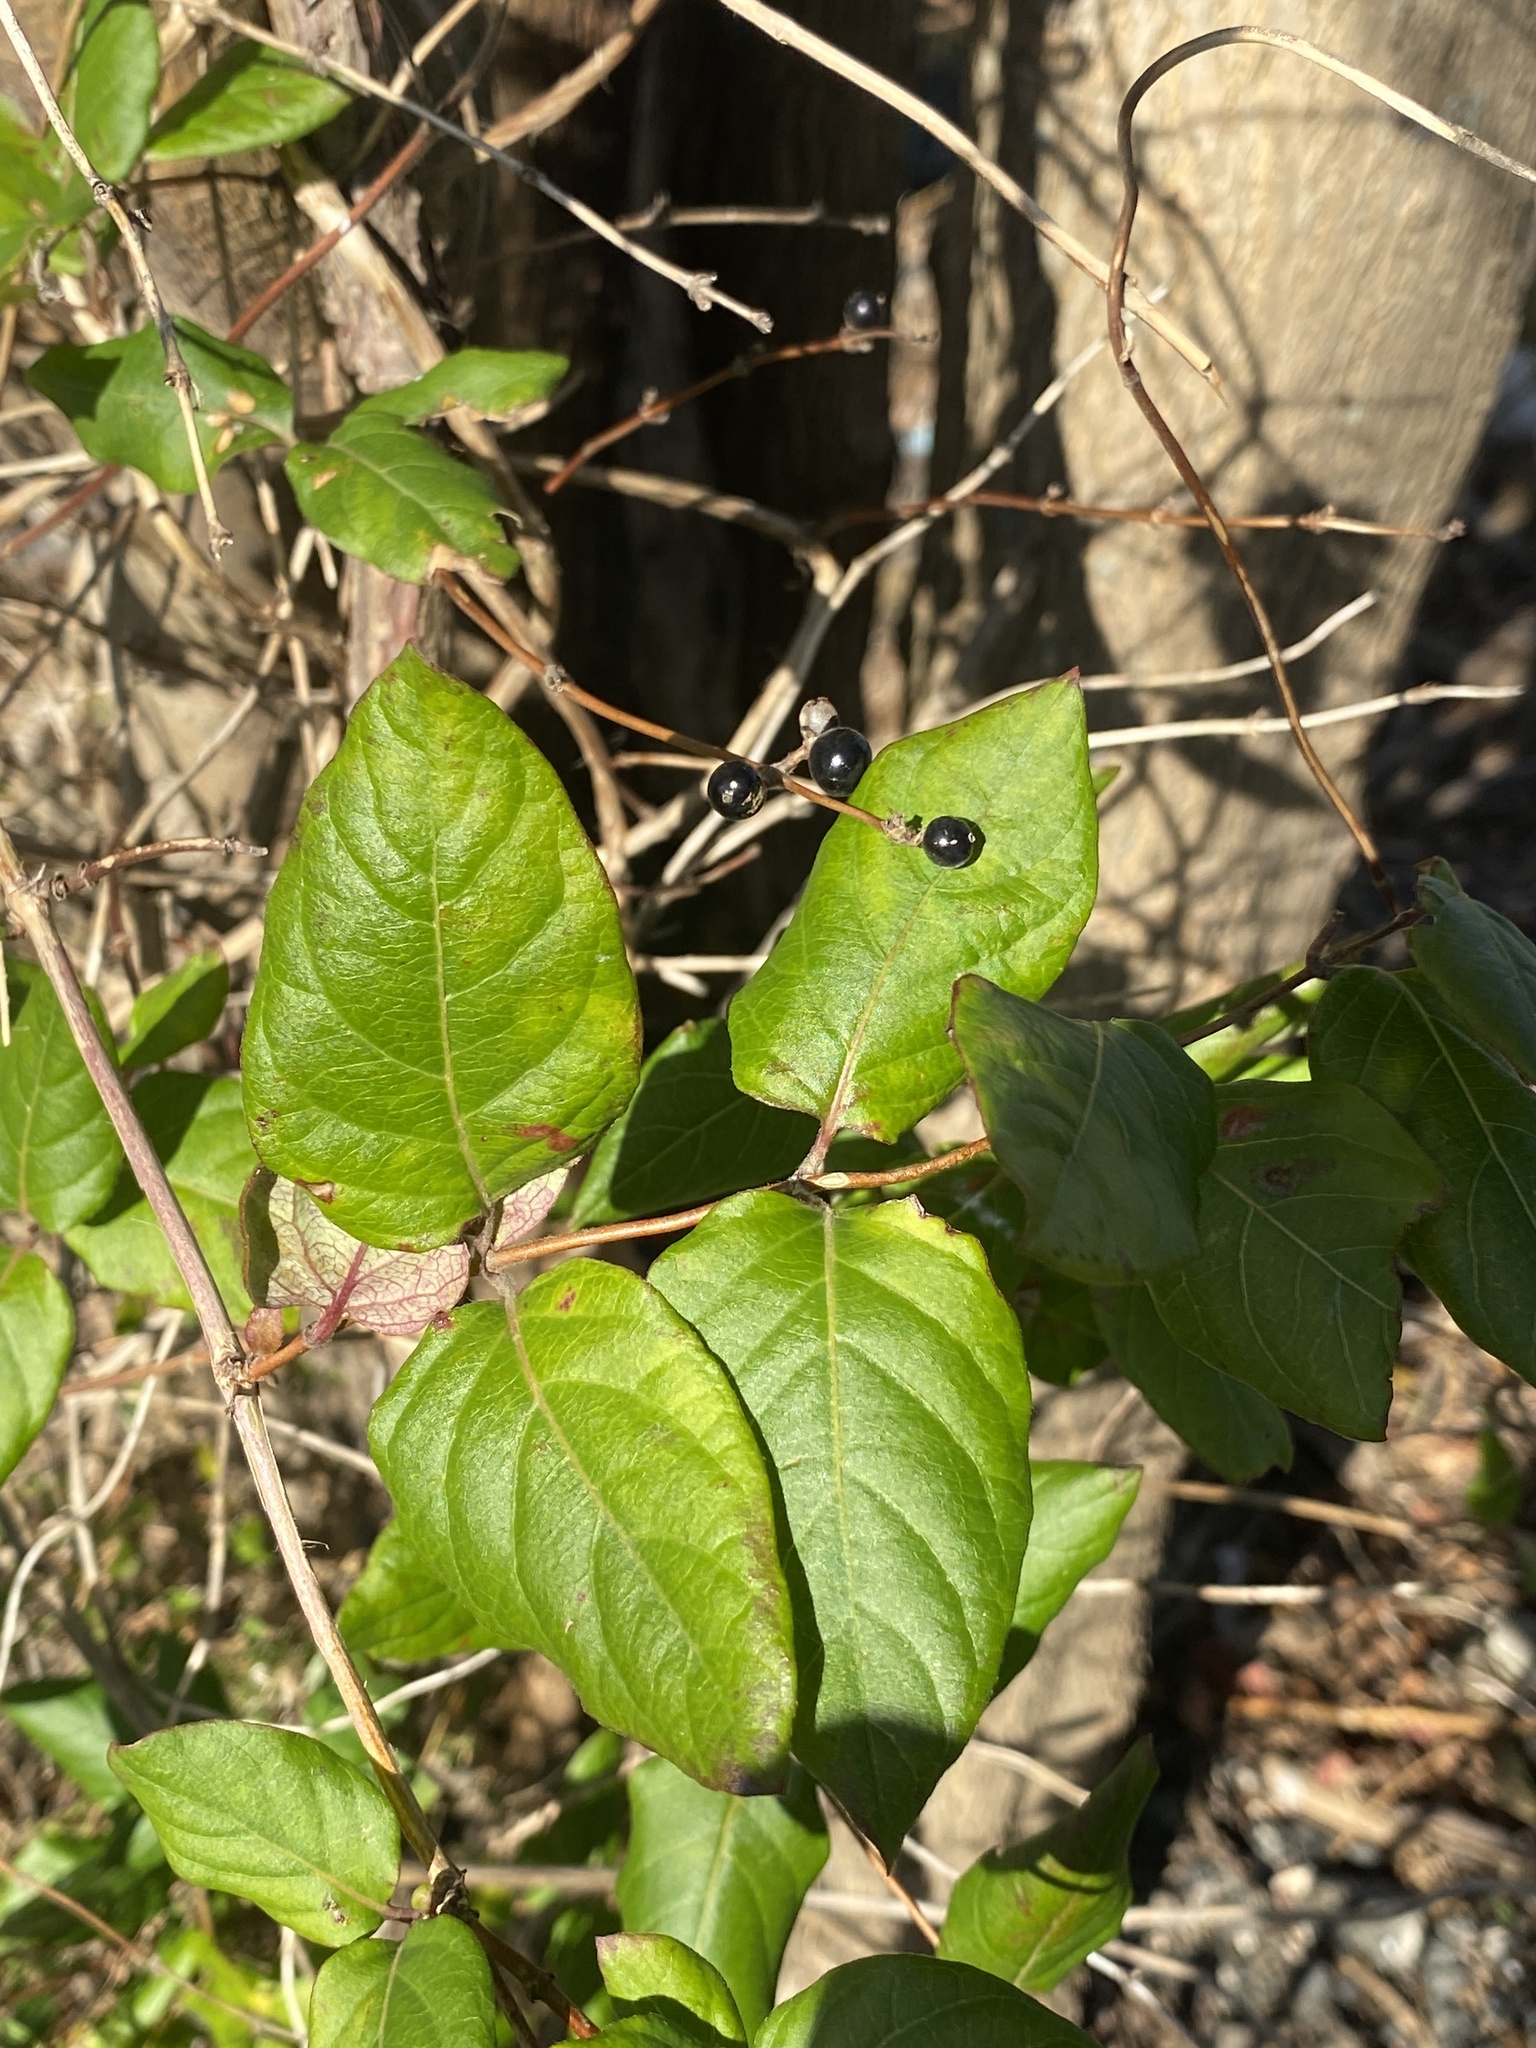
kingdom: Plantae
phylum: Tracheophyta
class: Magnoliopsida
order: Dipsacales
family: Caprifoliaceae
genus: Lonicera
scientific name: Lonicera japonica
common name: Japanese honeysuckle
